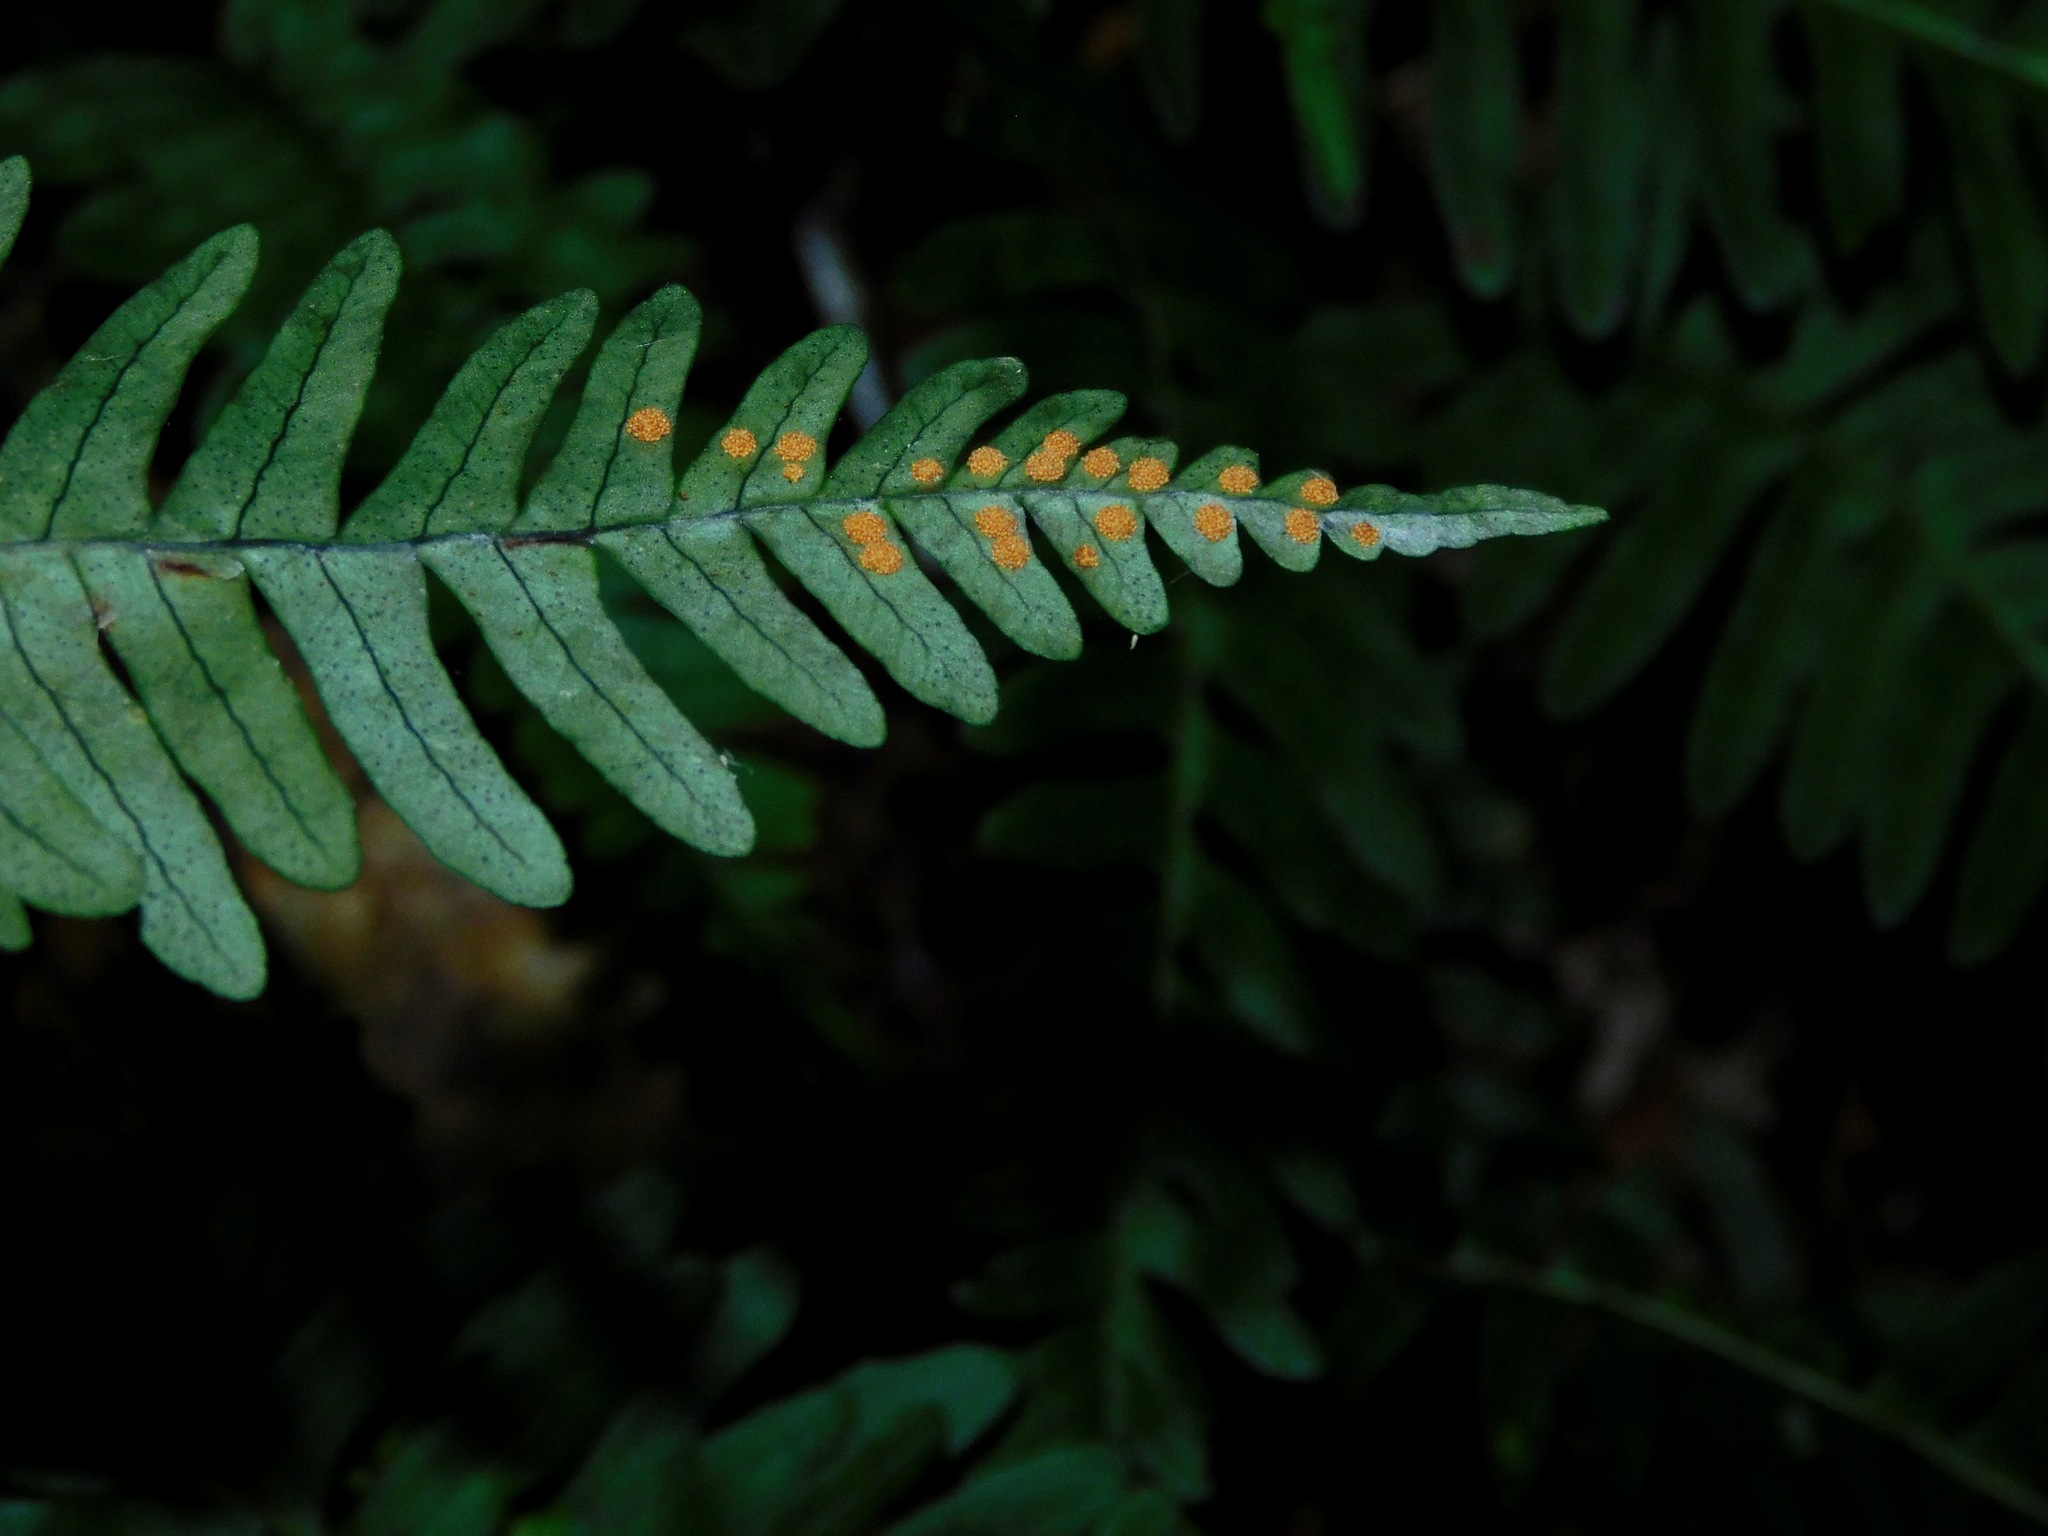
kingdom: Plantae
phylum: Tracheophyta
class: Polypodiopsida
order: Polypodiales
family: Polypodiaceae
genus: Polypodium
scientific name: Polypodium appalachianum
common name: Appalachian polypody
